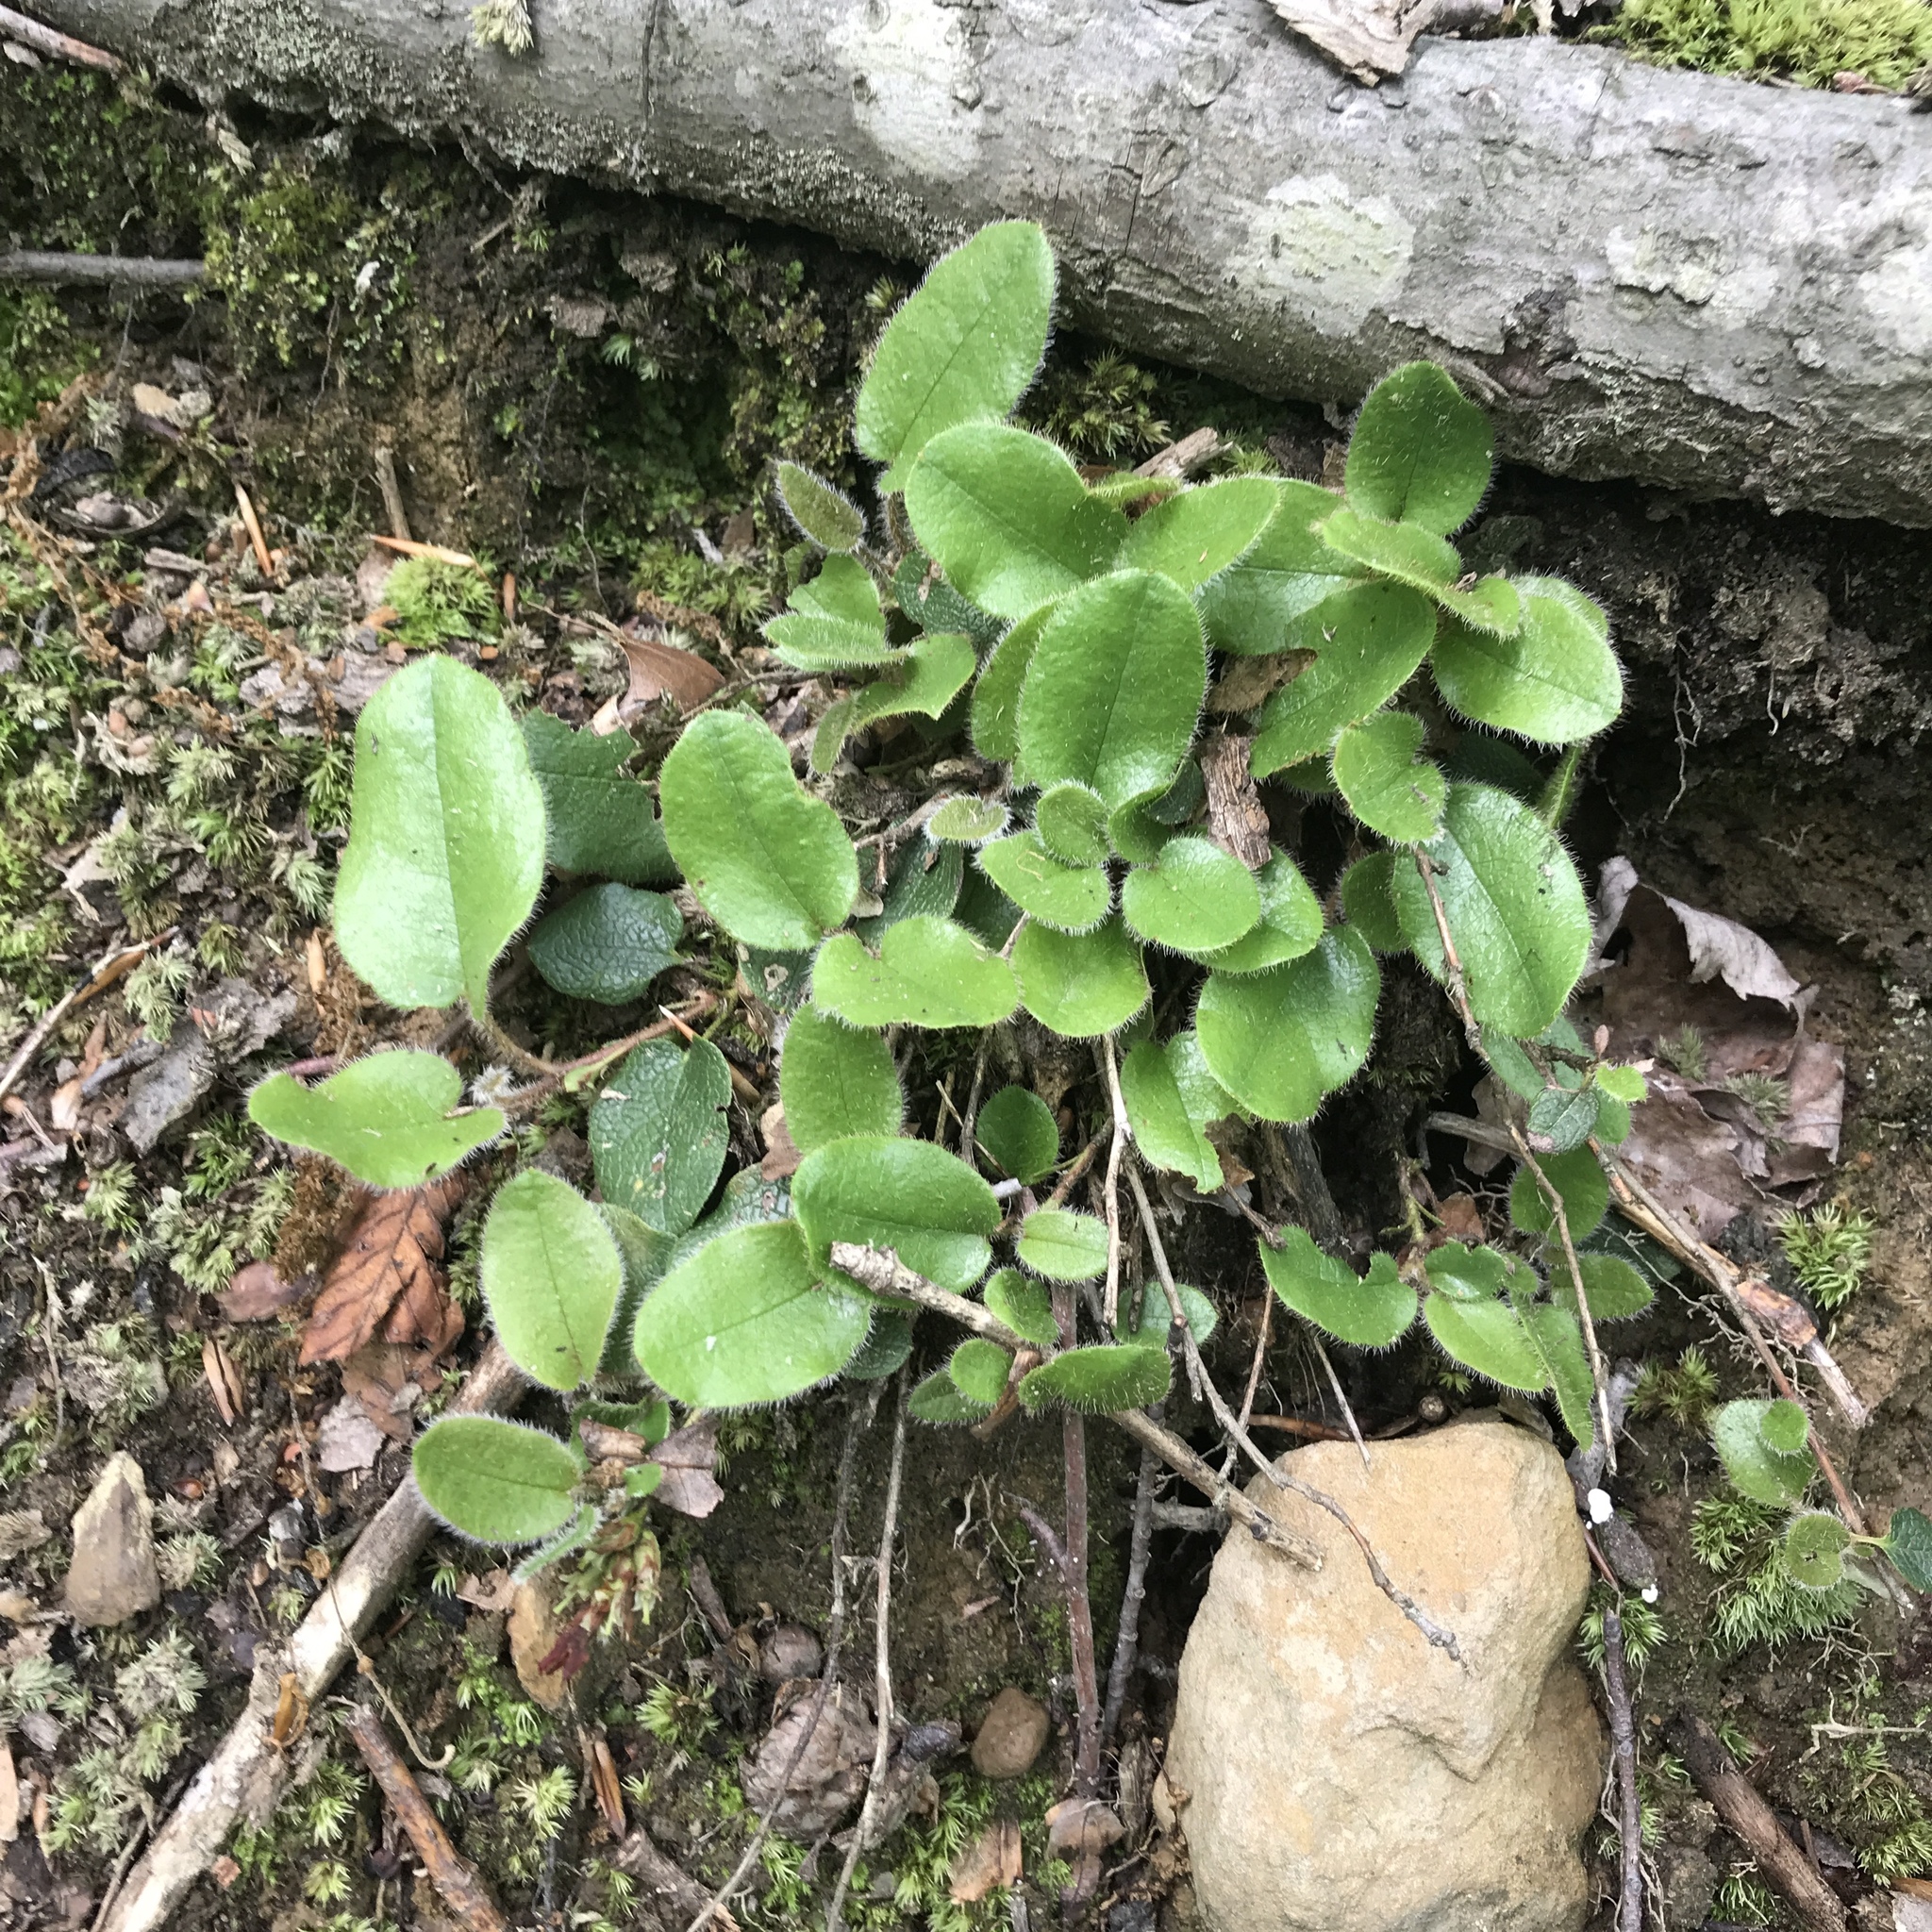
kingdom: Plantae
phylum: Tracheophyta
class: Magnoliopsida
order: Ericales
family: Ericaceae
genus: Epigaea
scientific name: Epigaea repens
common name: Gravelroot
